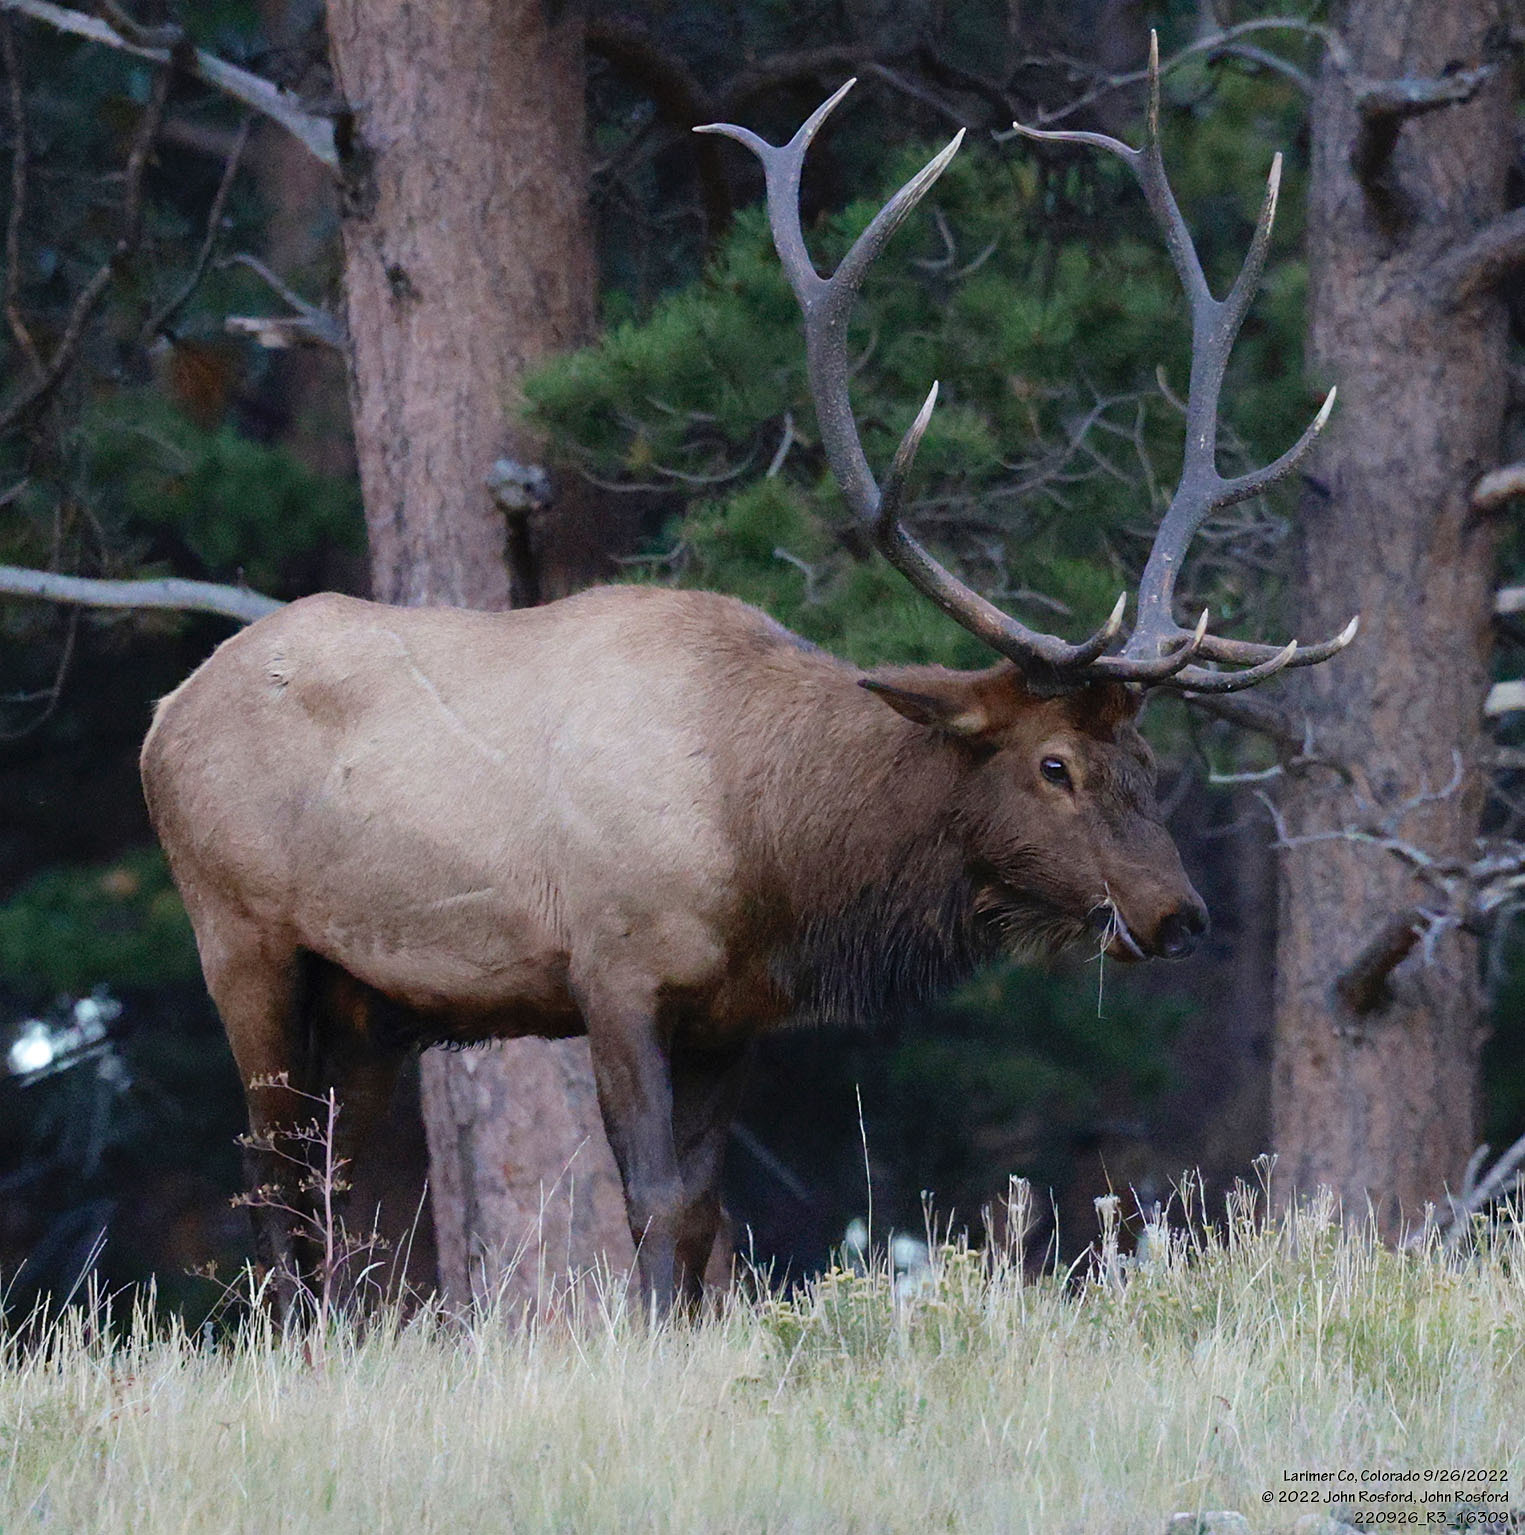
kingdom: Animalia
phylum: Chordata
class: Mammalia
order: Artiodactyla
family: Cervidae
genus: Cervus
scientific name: Cervus elaphus
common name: Red deer
